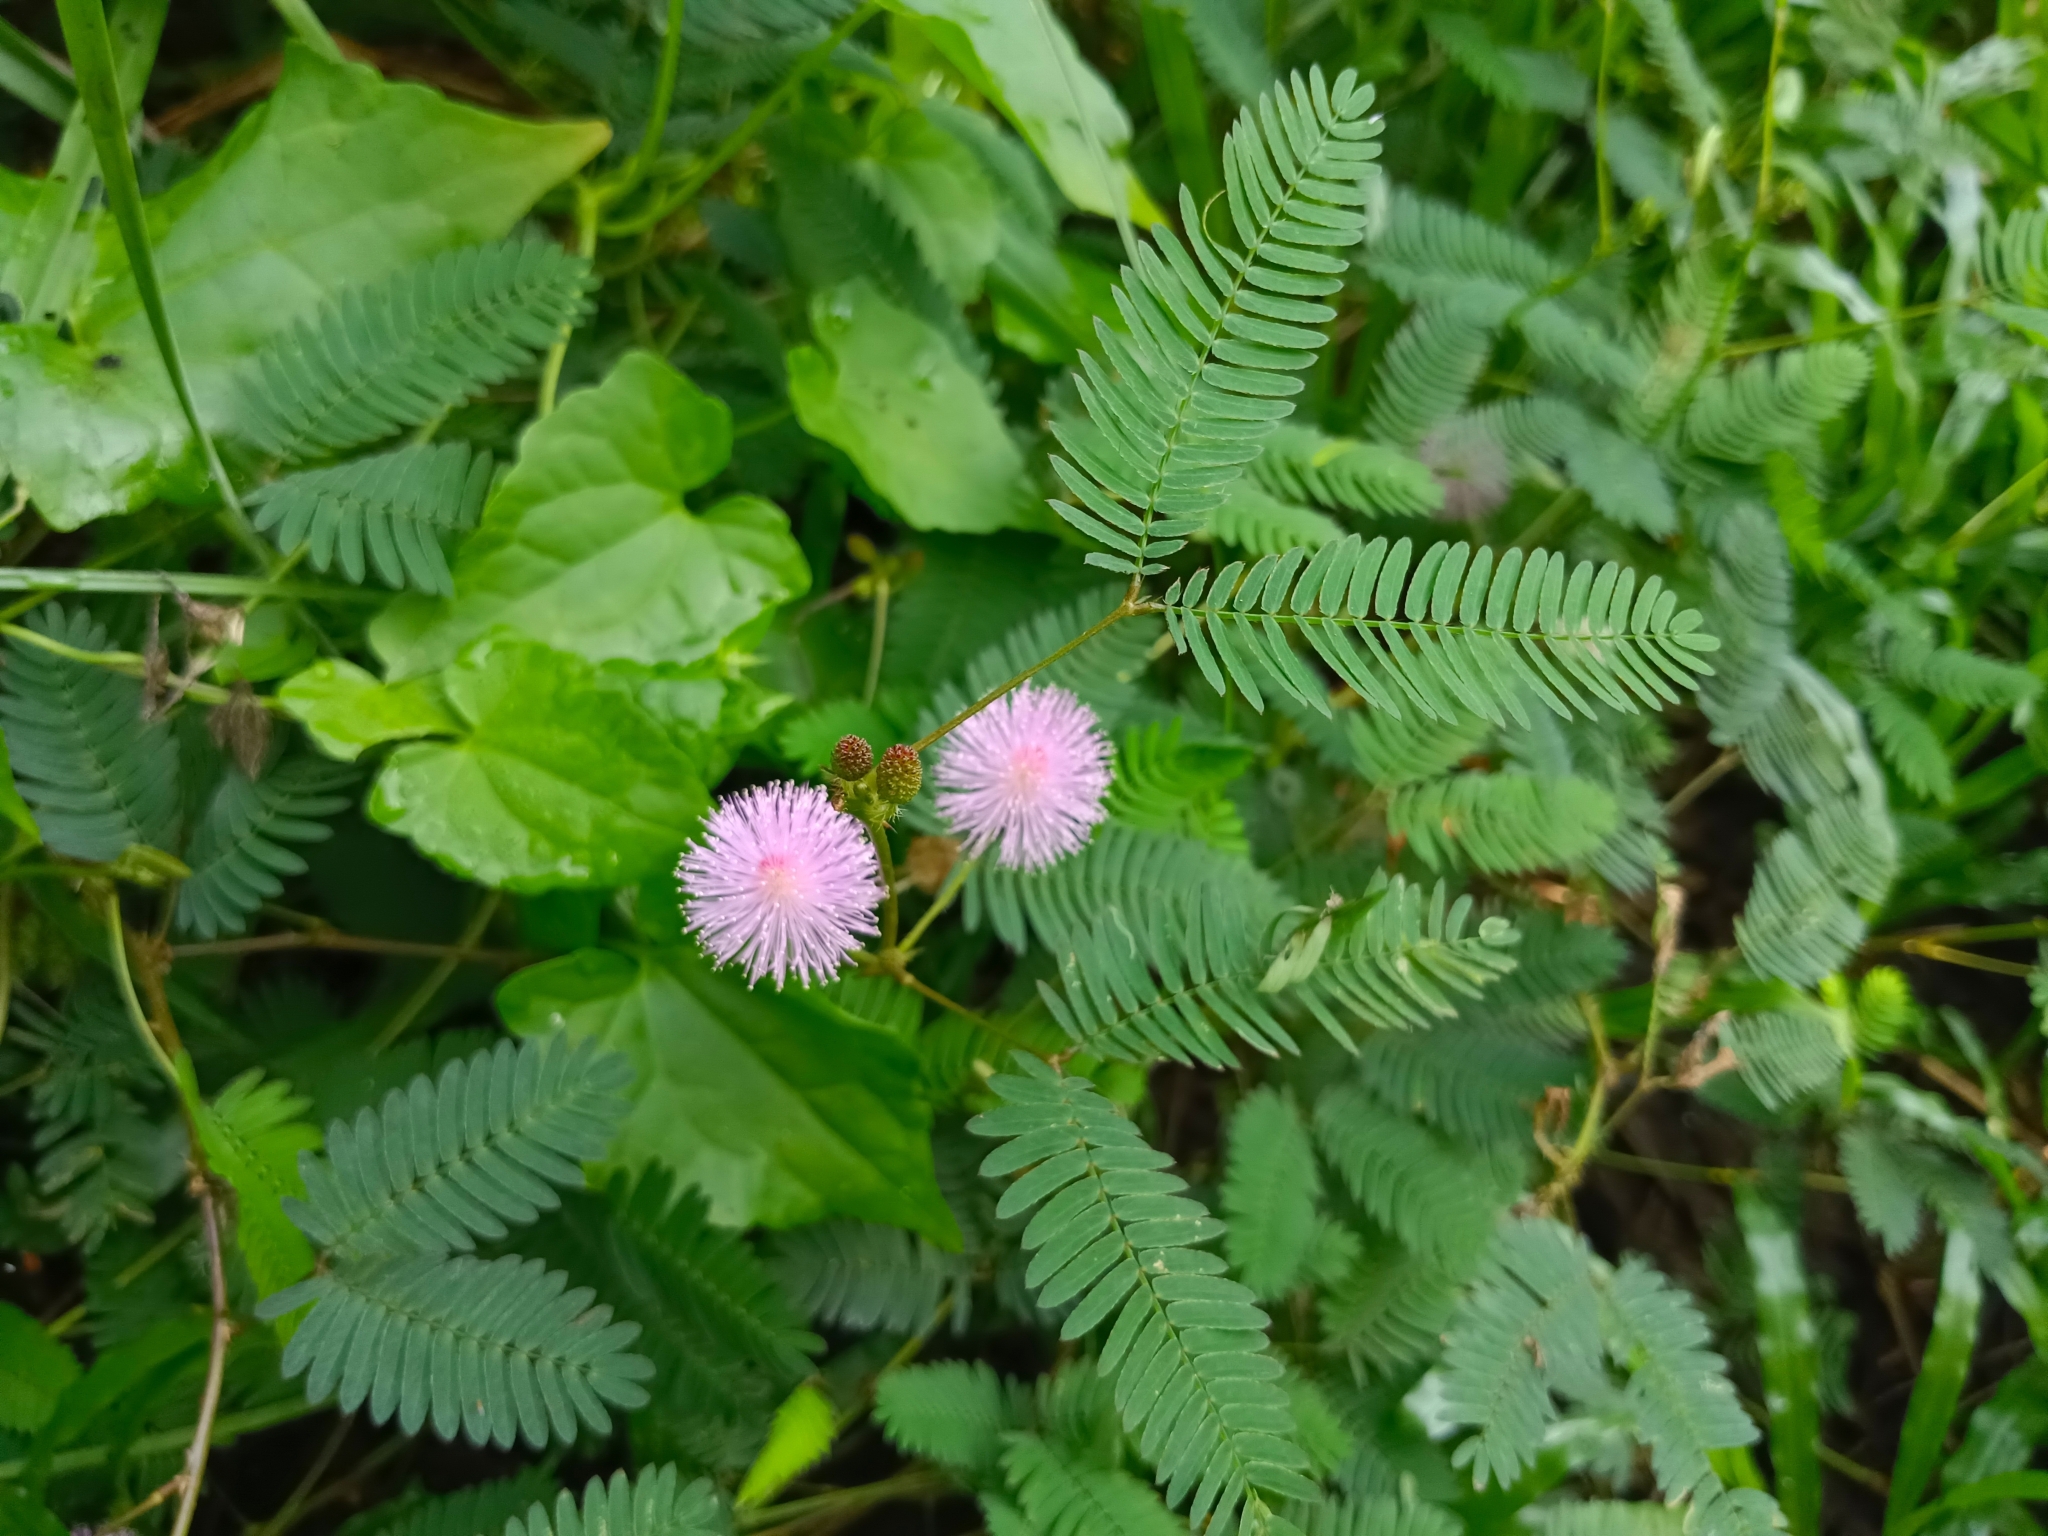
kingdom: Plantae
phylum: Tracheophyta
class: Magnoliopsida
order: Fabales
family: Fabaceae
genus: Mimosa
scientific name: Mimosa pudica
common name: Sensitive plant
